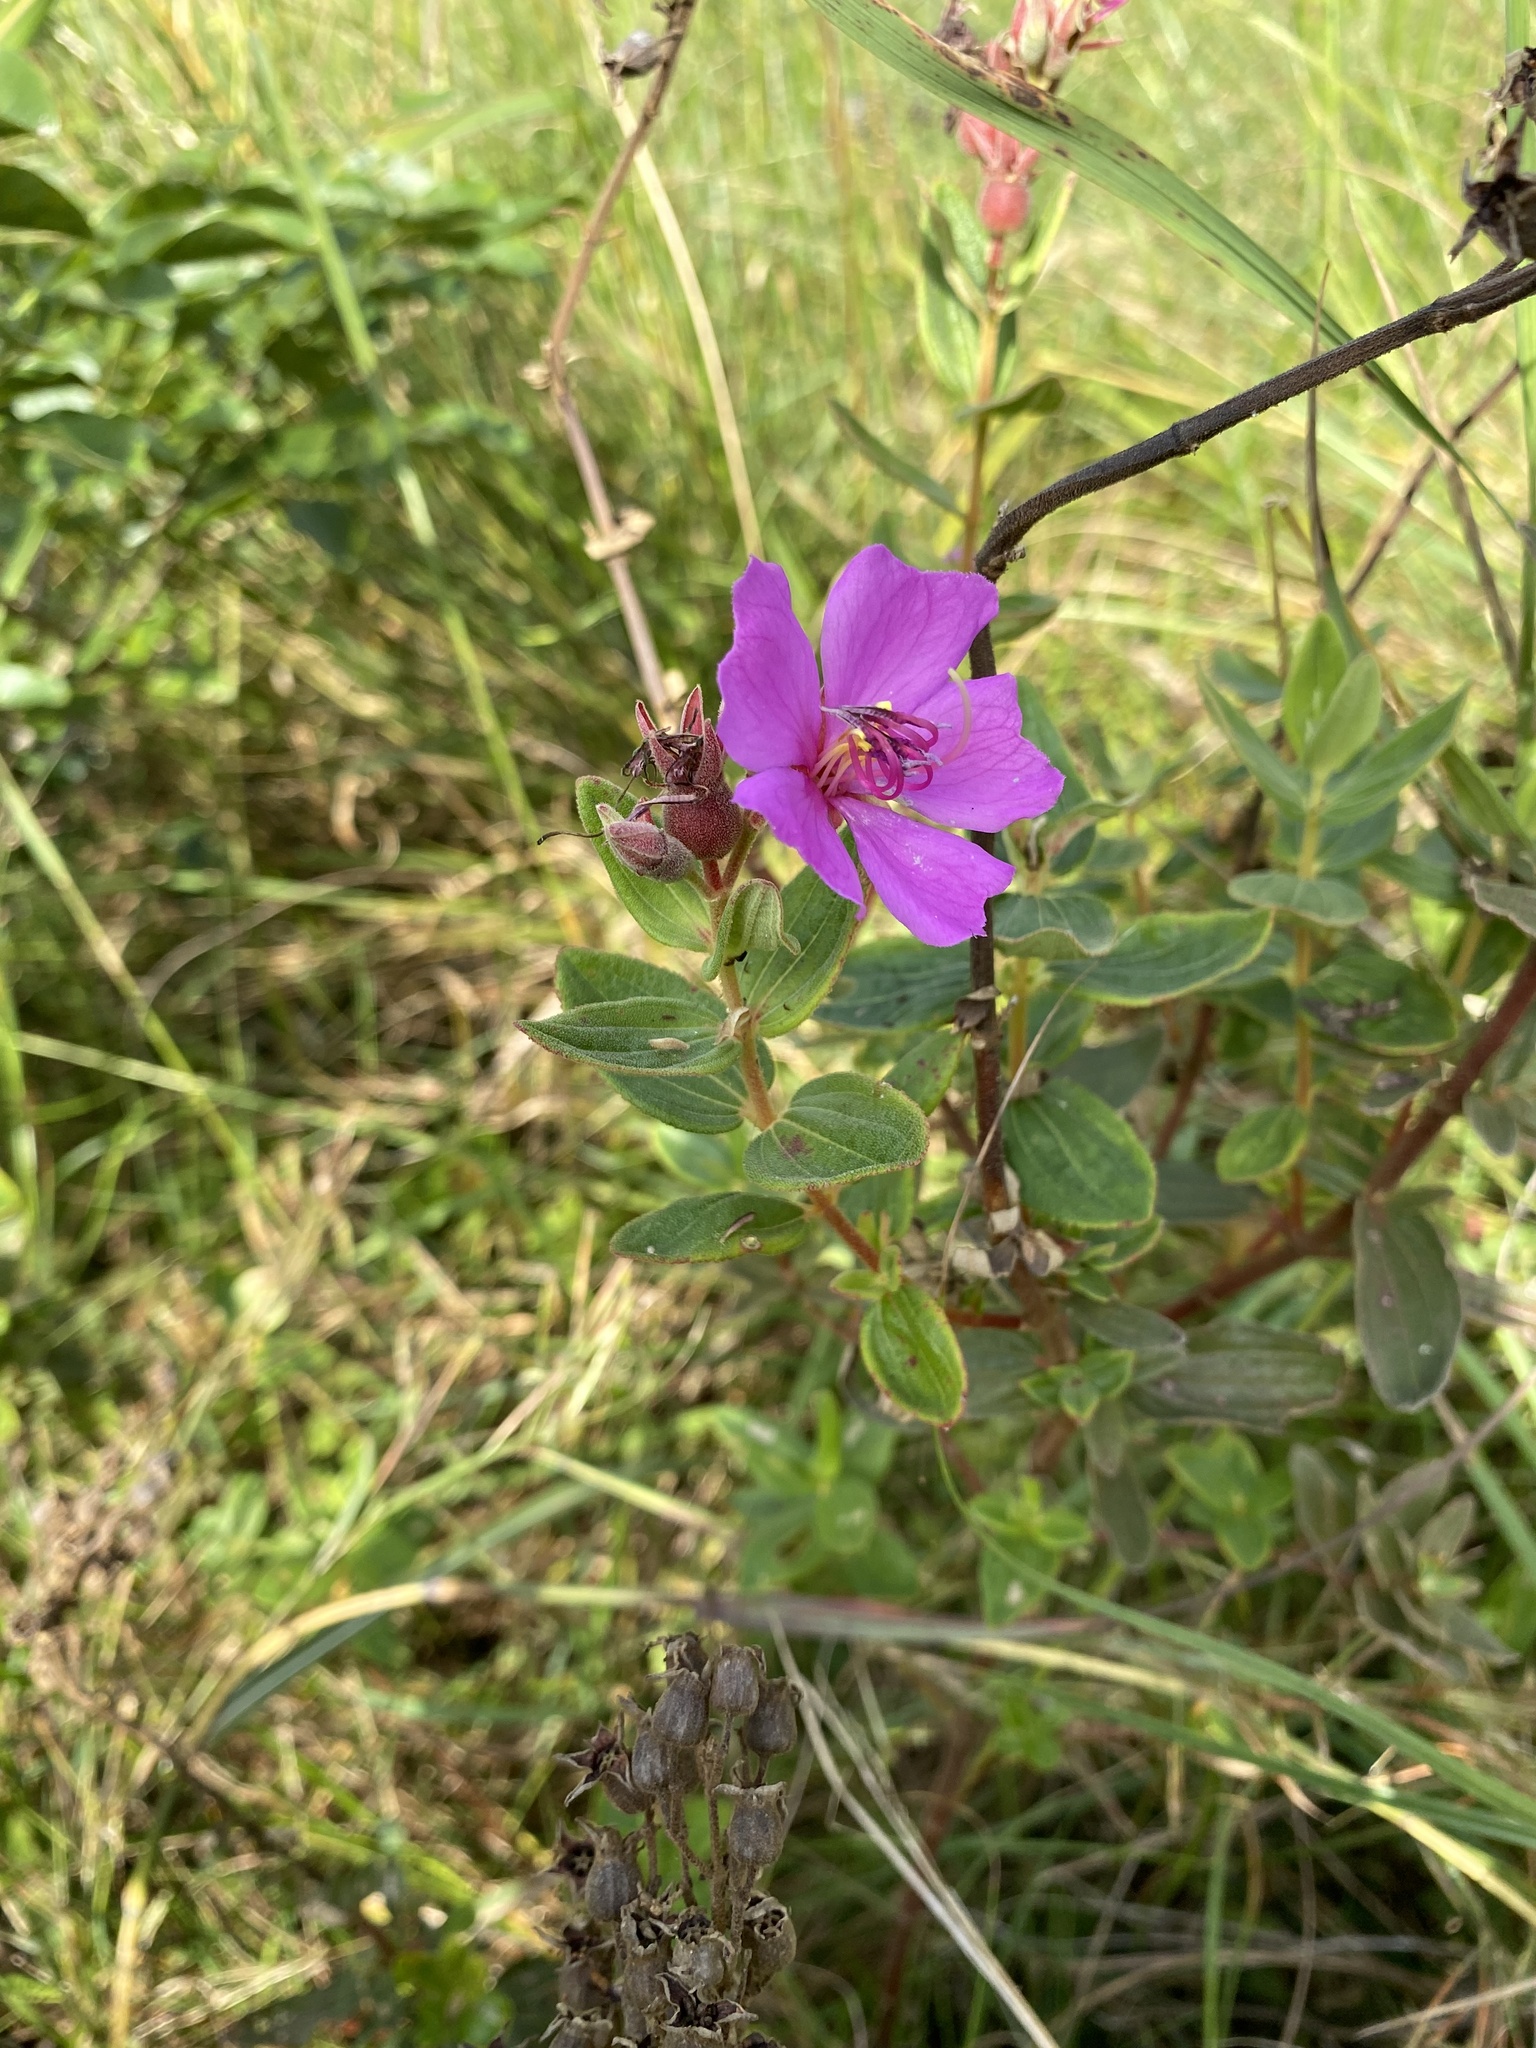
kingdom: Plantae
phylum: Tracheophyta
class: Magnoliopsida
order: Myrtales
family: Melastomataceae
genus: Argyrella
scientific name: Argyrella canescens
